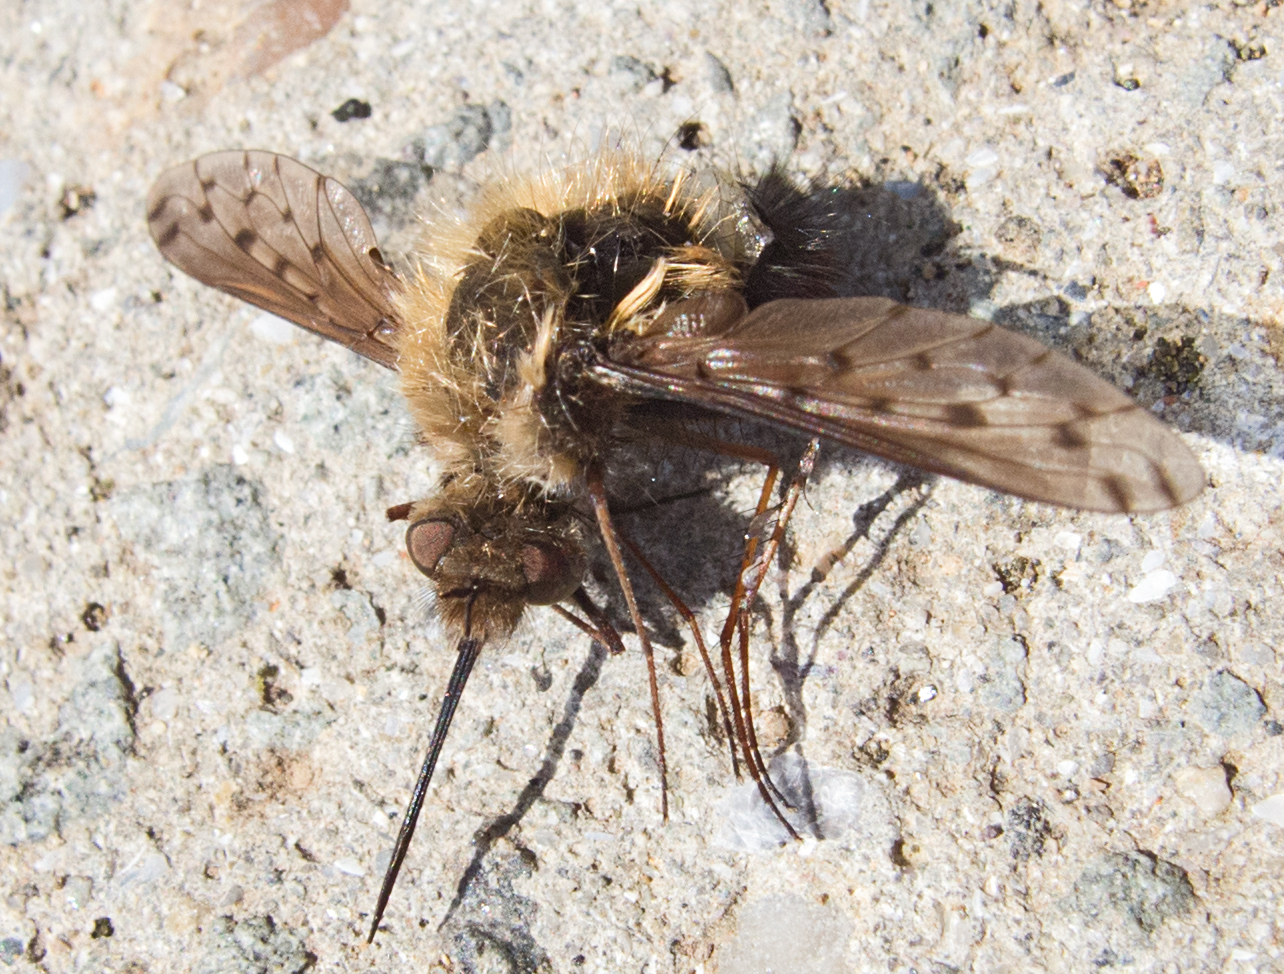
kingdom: Animalia
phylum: Arthropoda
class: Insecta
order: Diptera
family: Bombyliidae
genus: Bombylius
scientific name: Bombylius medius
